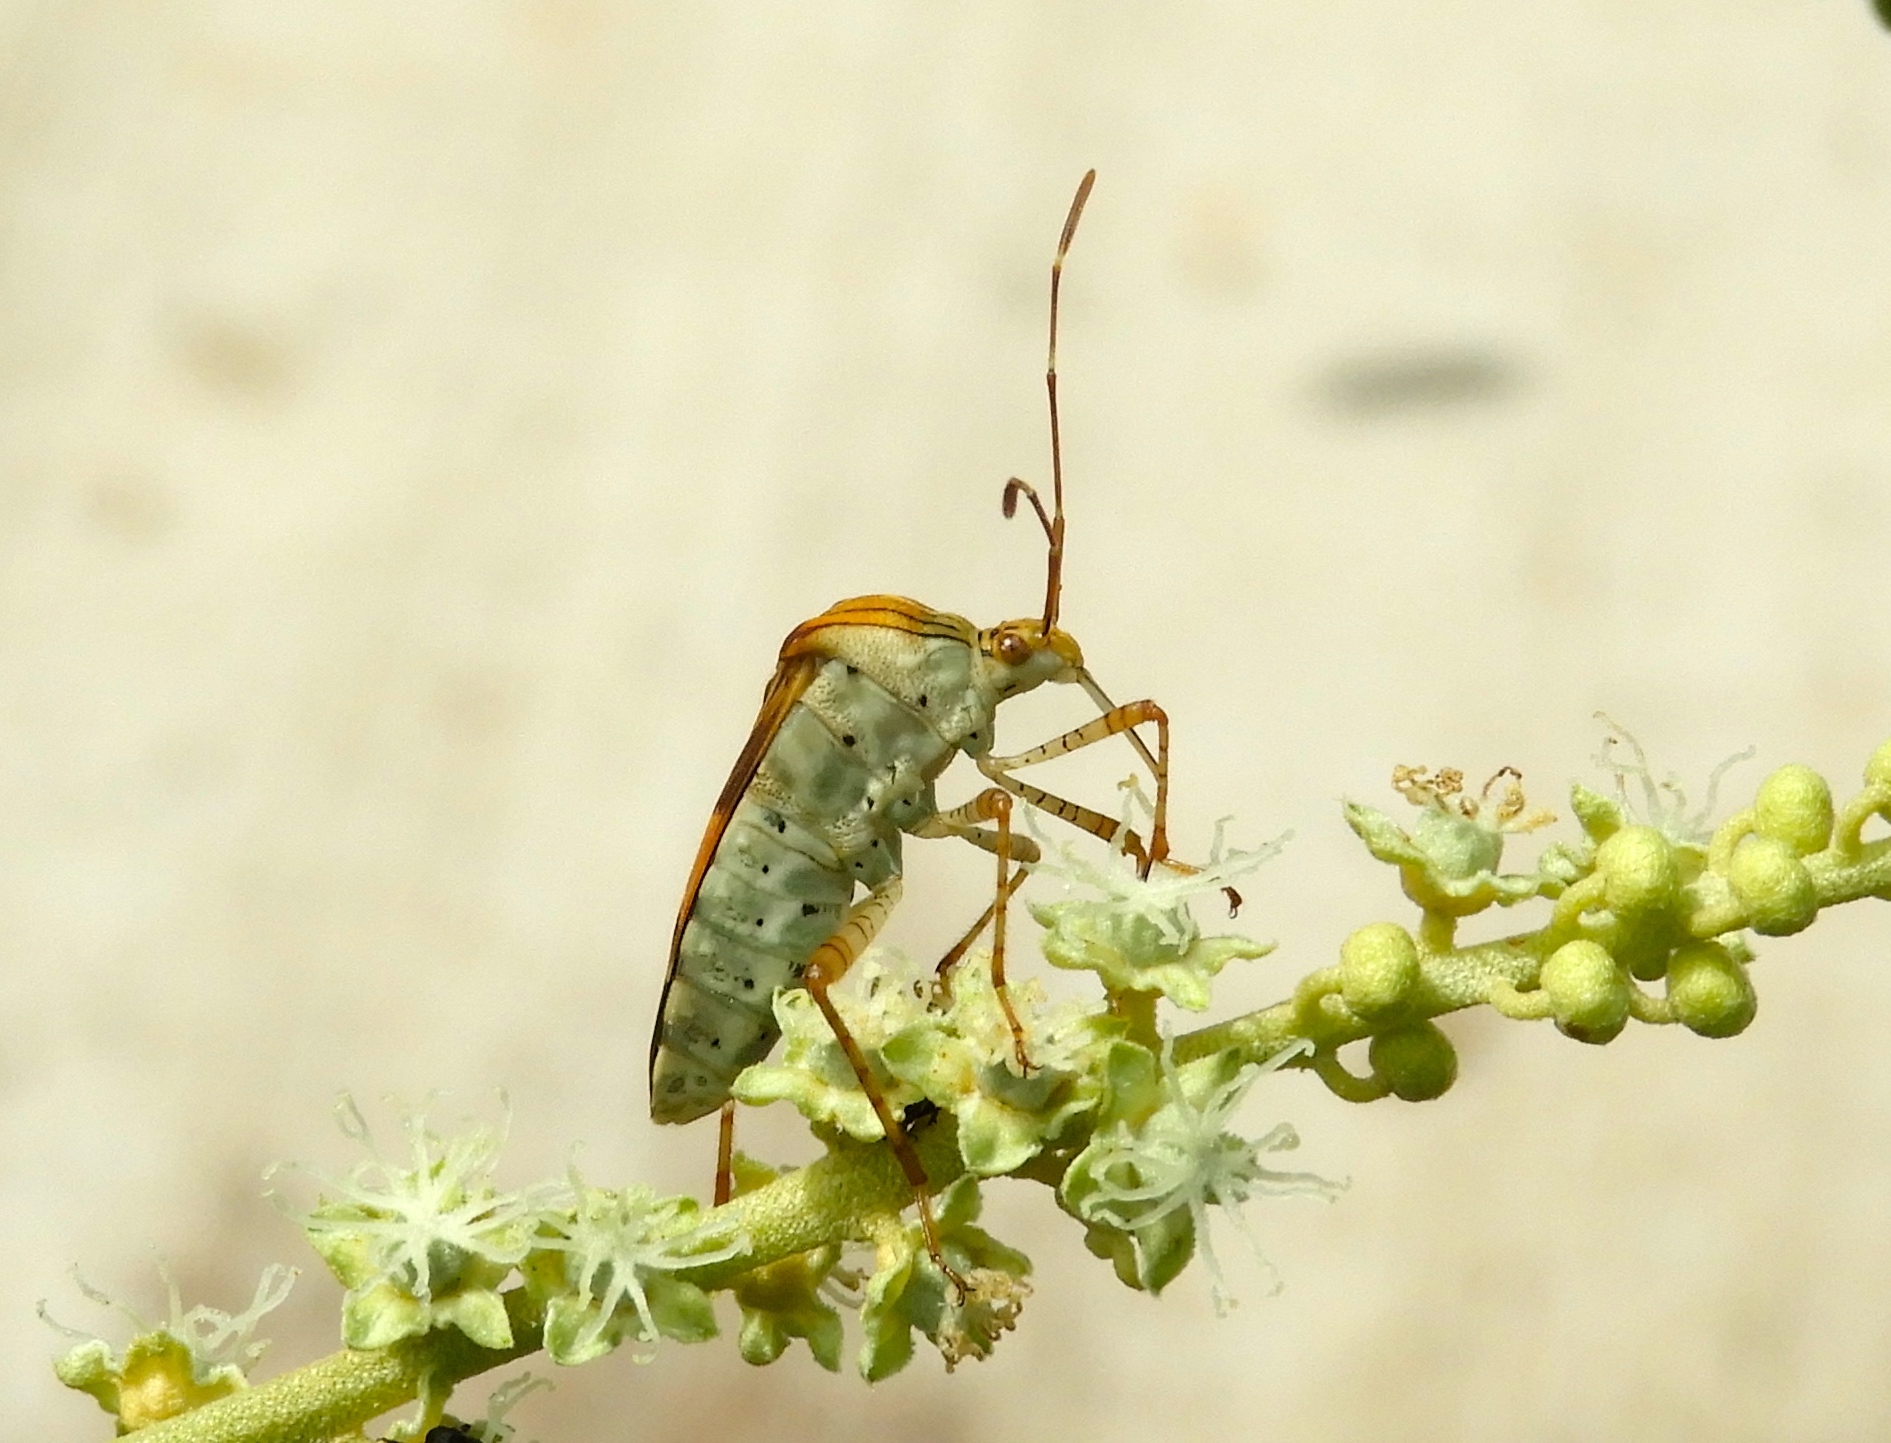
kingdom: Animalia
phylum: Arthropoda
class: Insecta
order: Hemiptera
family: Coreidae
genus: Hypselonotus
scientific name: Hypselonotus punctiventris
